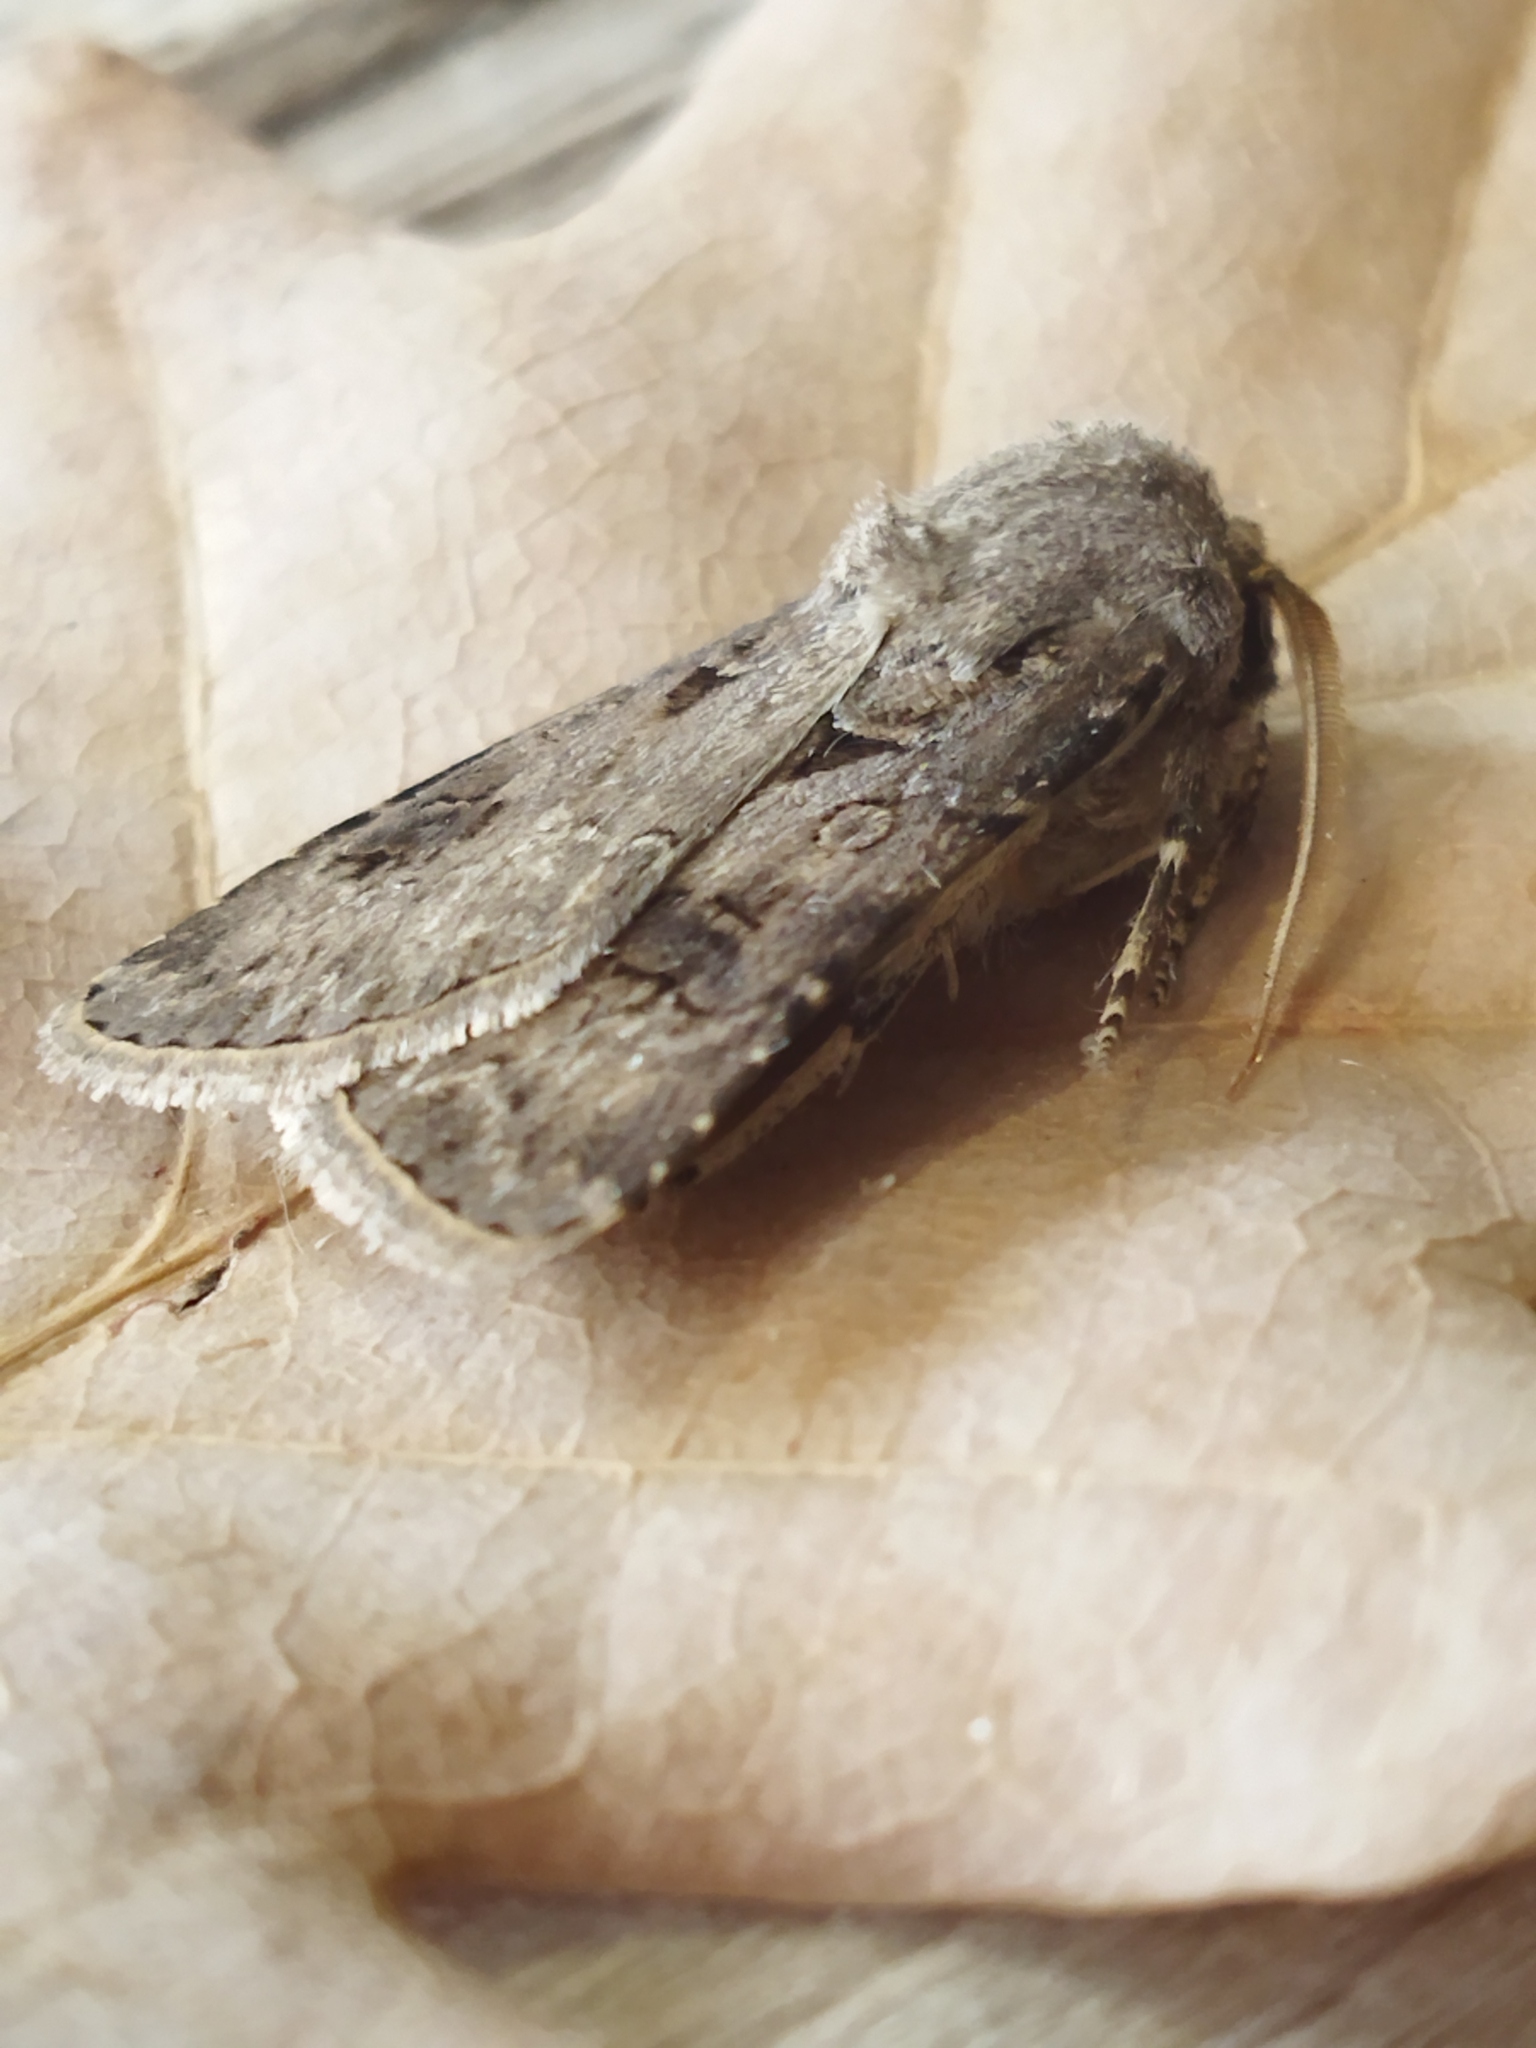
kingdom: Animalia
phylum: Arthropoda
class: Insecta
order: Lepidoptera
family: Noctuidae
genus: Agrotis
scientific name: Agrotis bigramma
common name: Great dart
